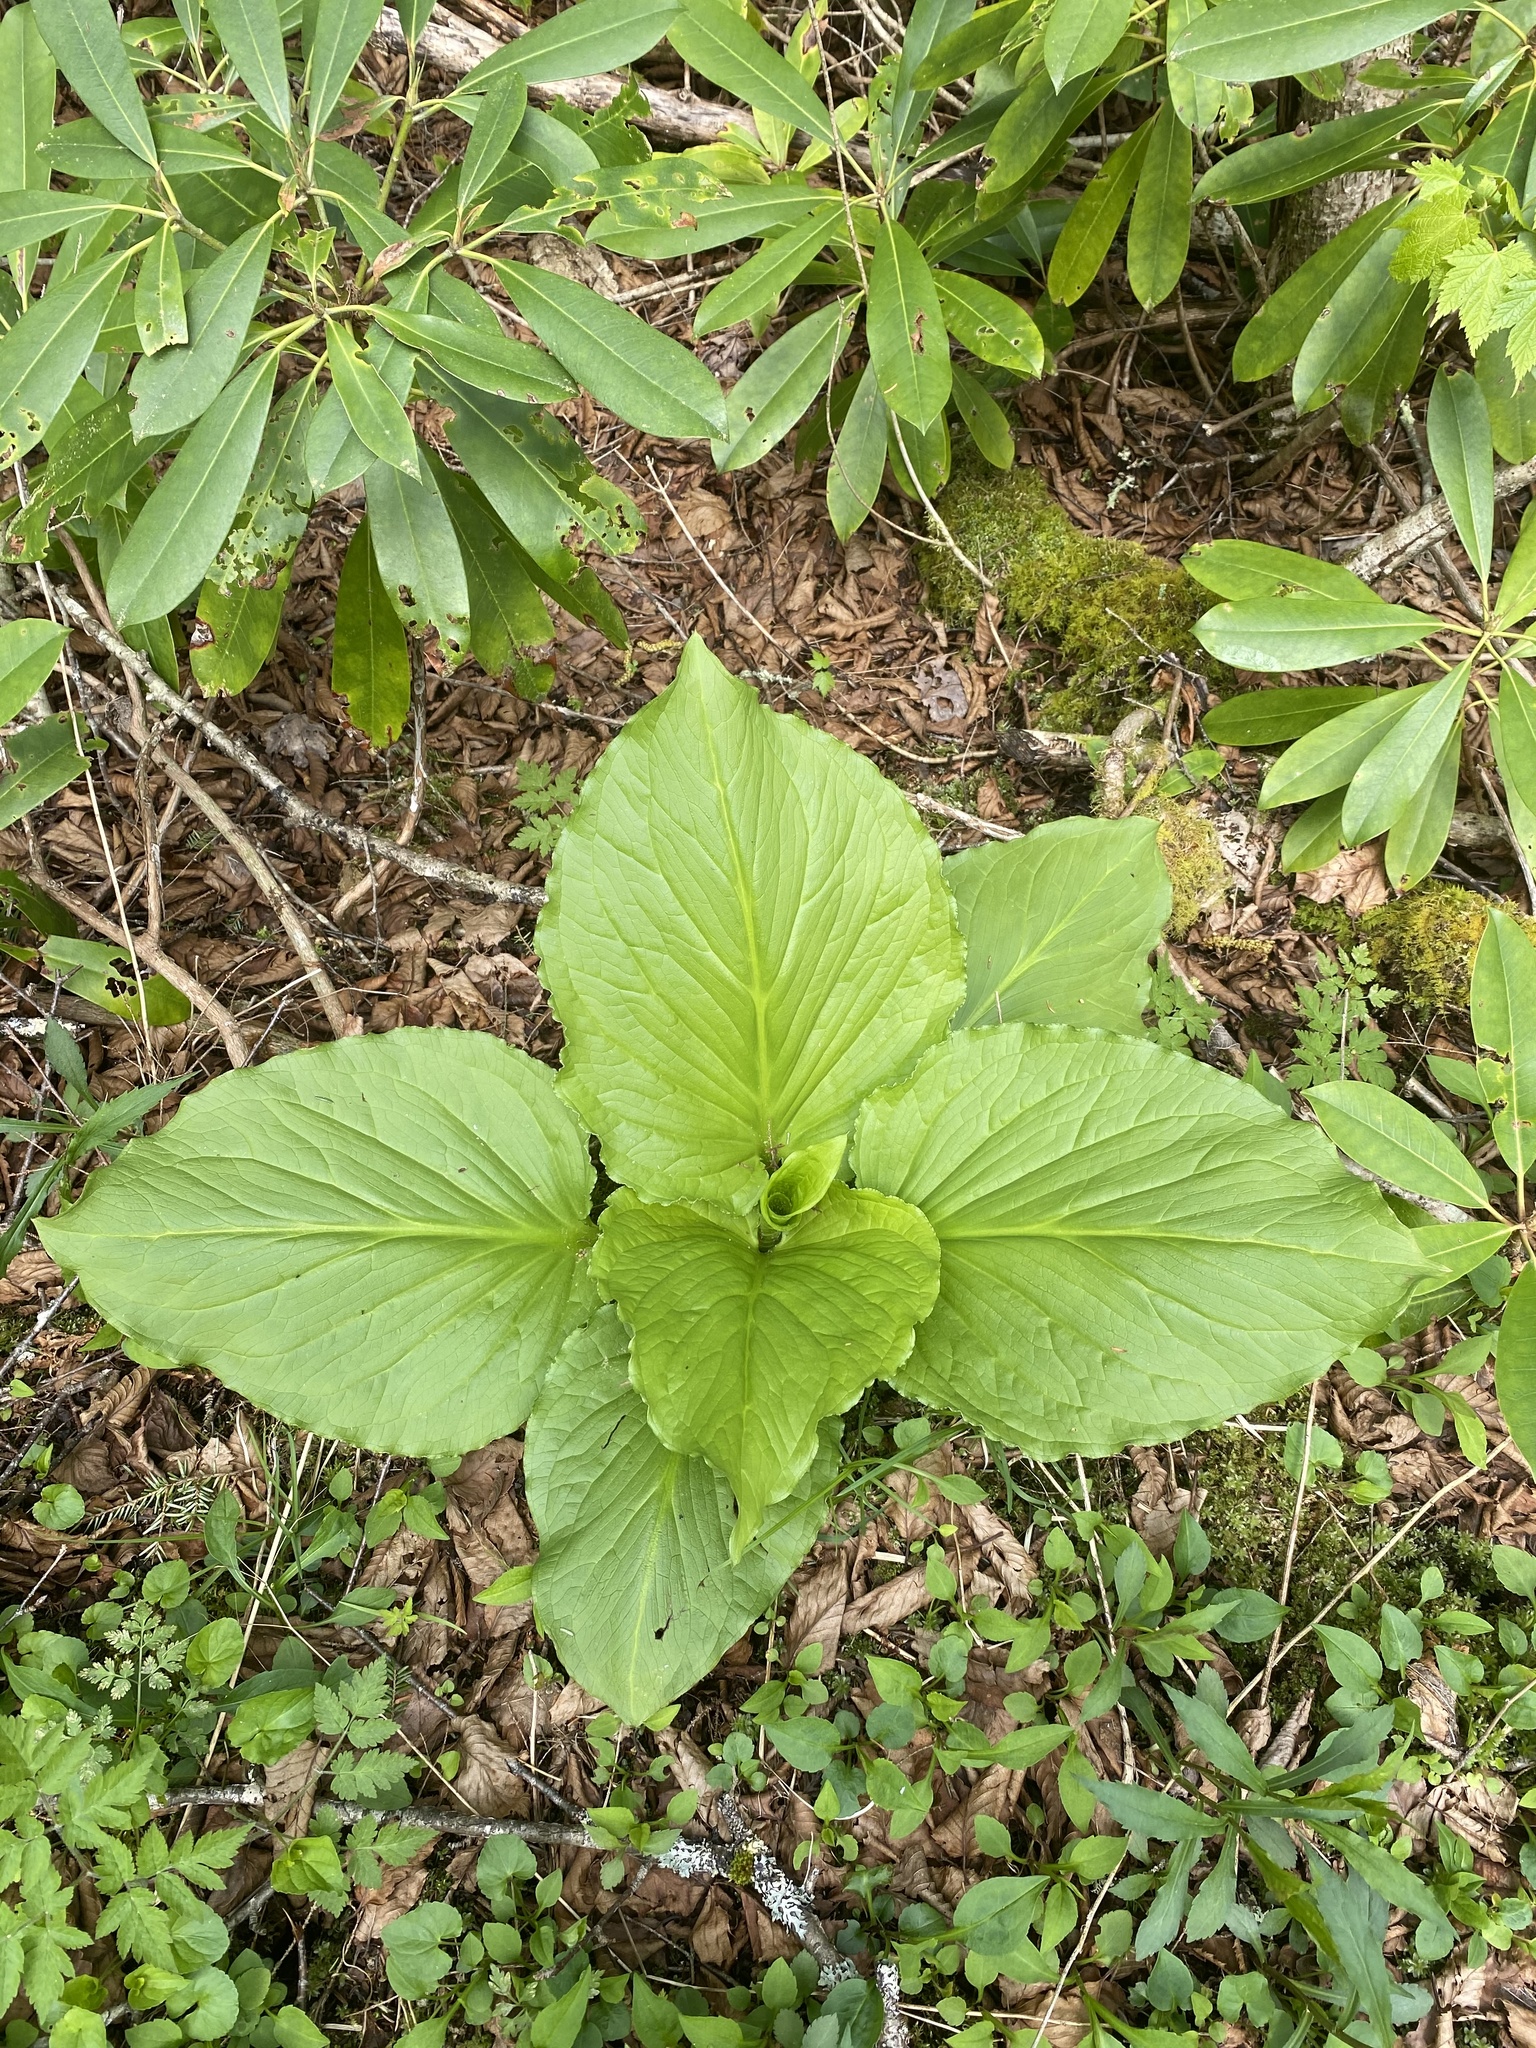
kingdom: Plantae
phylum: Tracheophyta
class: Liliopsida
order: Alismatales
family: Araceae
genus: Symplocarpus
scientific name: Symplocarpus foetidus
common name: Eastern skunk cabbage
